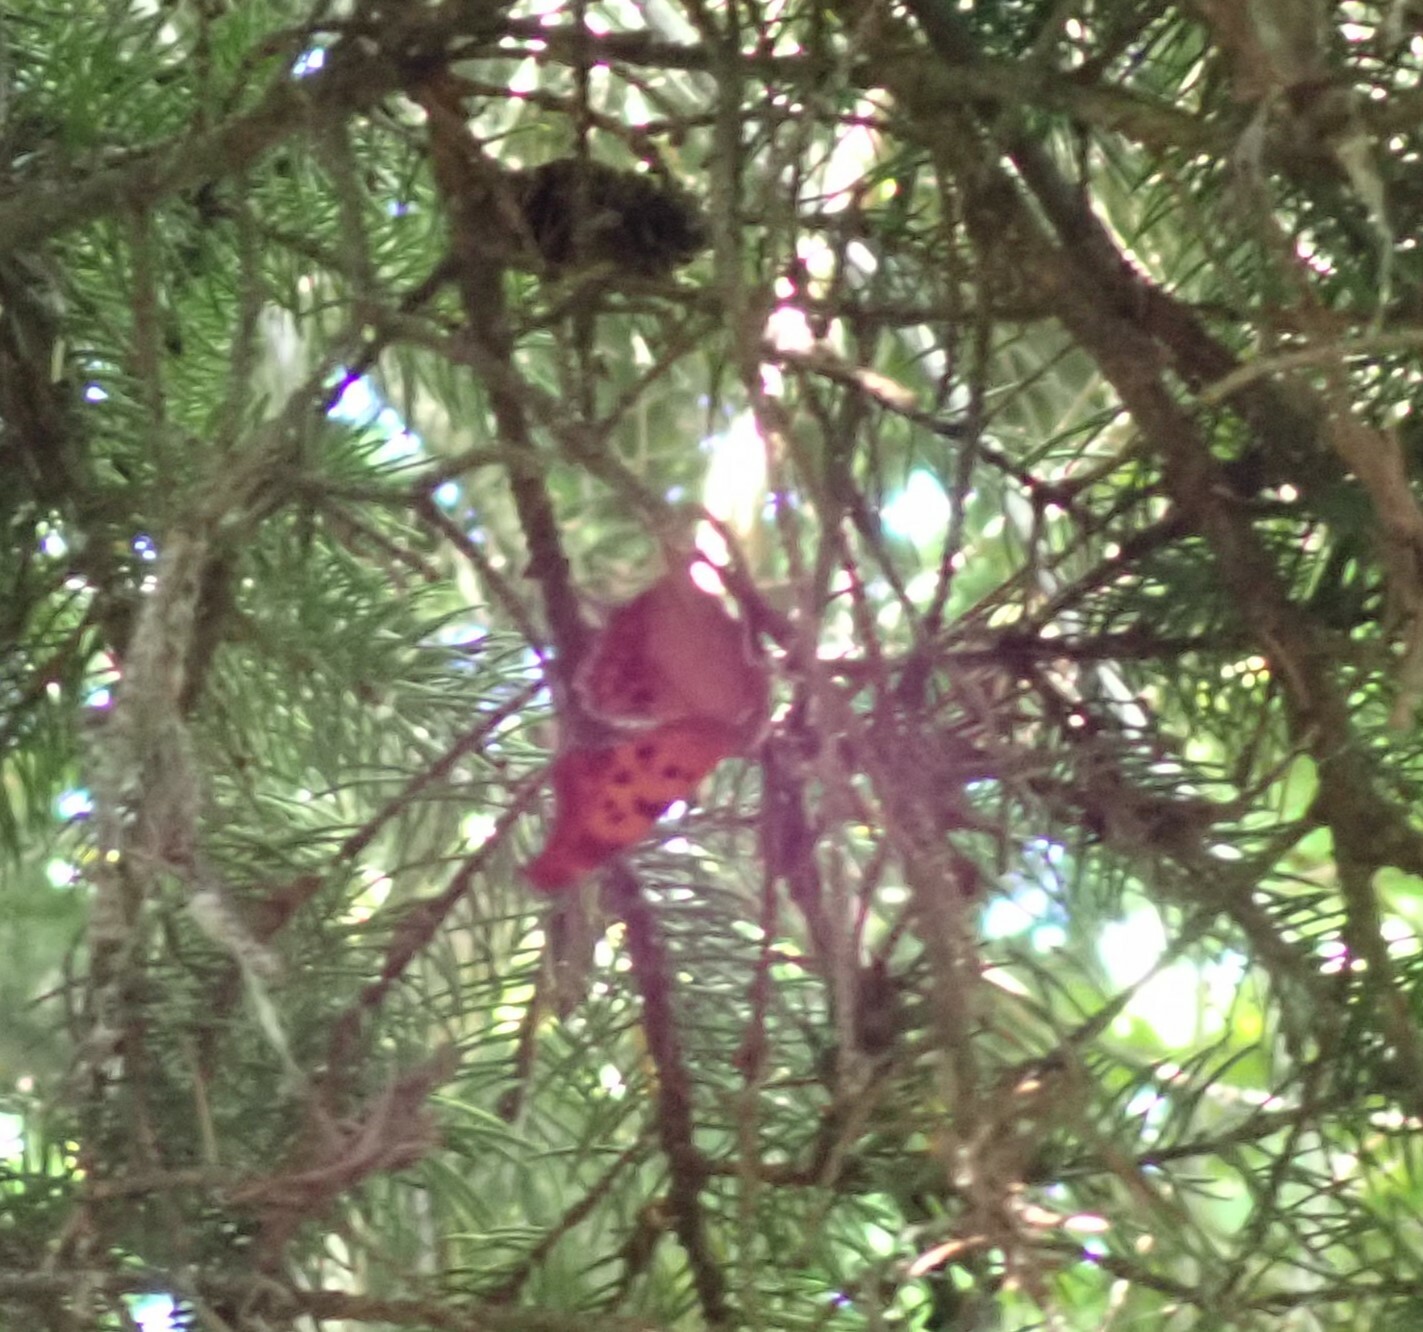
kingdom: Animalia
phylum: Arthropoda
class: Insecta
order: Lepidoptera
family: Nymphalidae
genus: Polygonia
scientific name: Polygonia interrogationis
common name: Question mark
